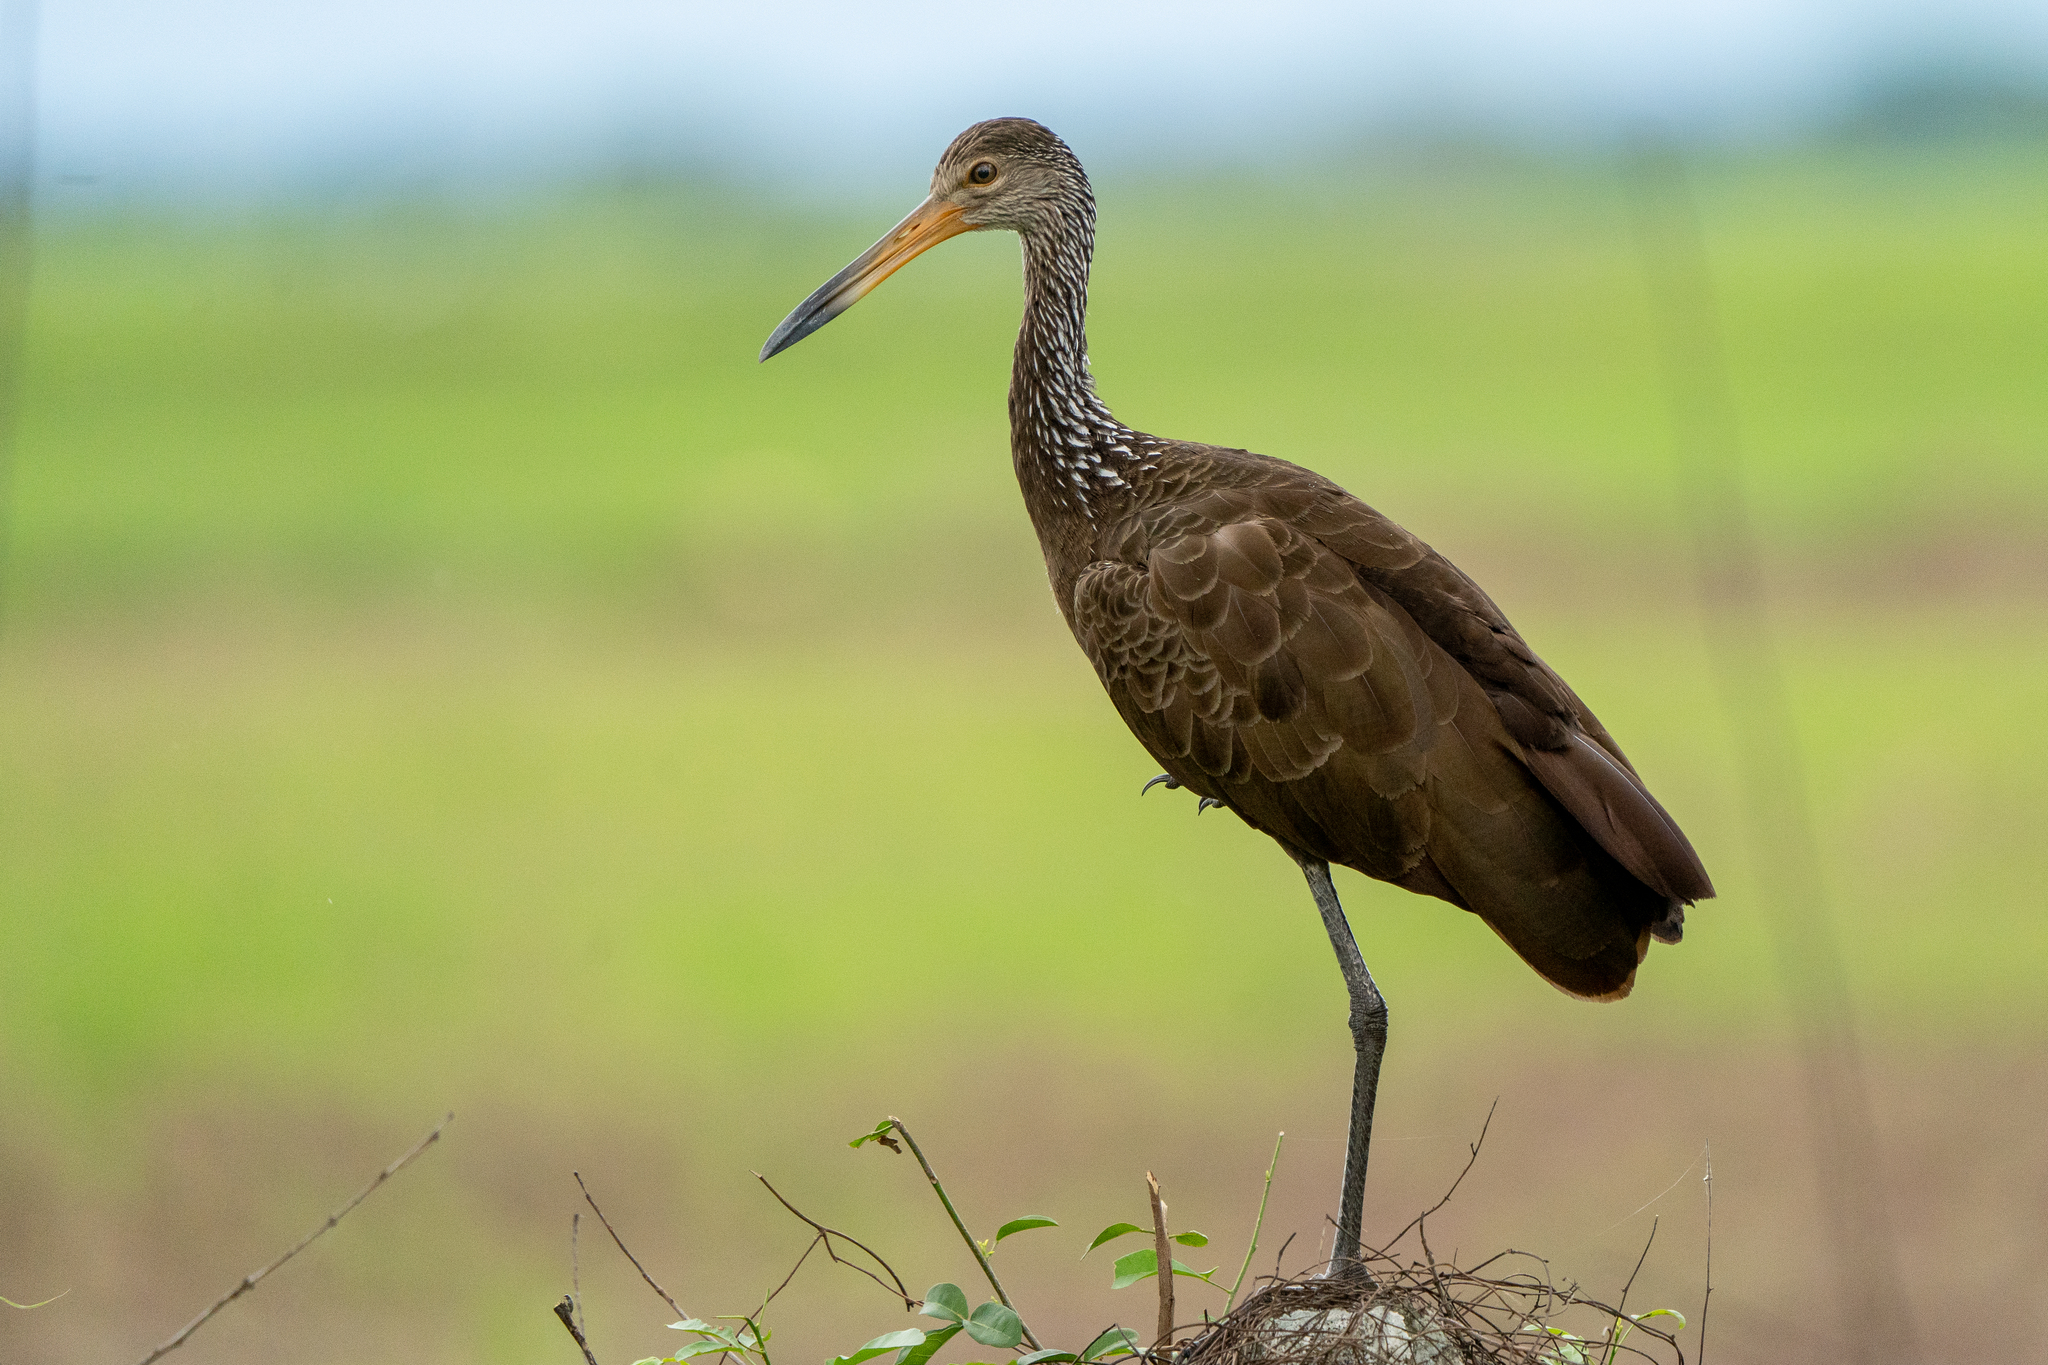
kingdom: Animalia
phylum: Chordata
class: Aves
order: Gruiformes
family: Aramidae
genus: Aramus
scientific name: Aramus guarauna
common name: Limpkin
